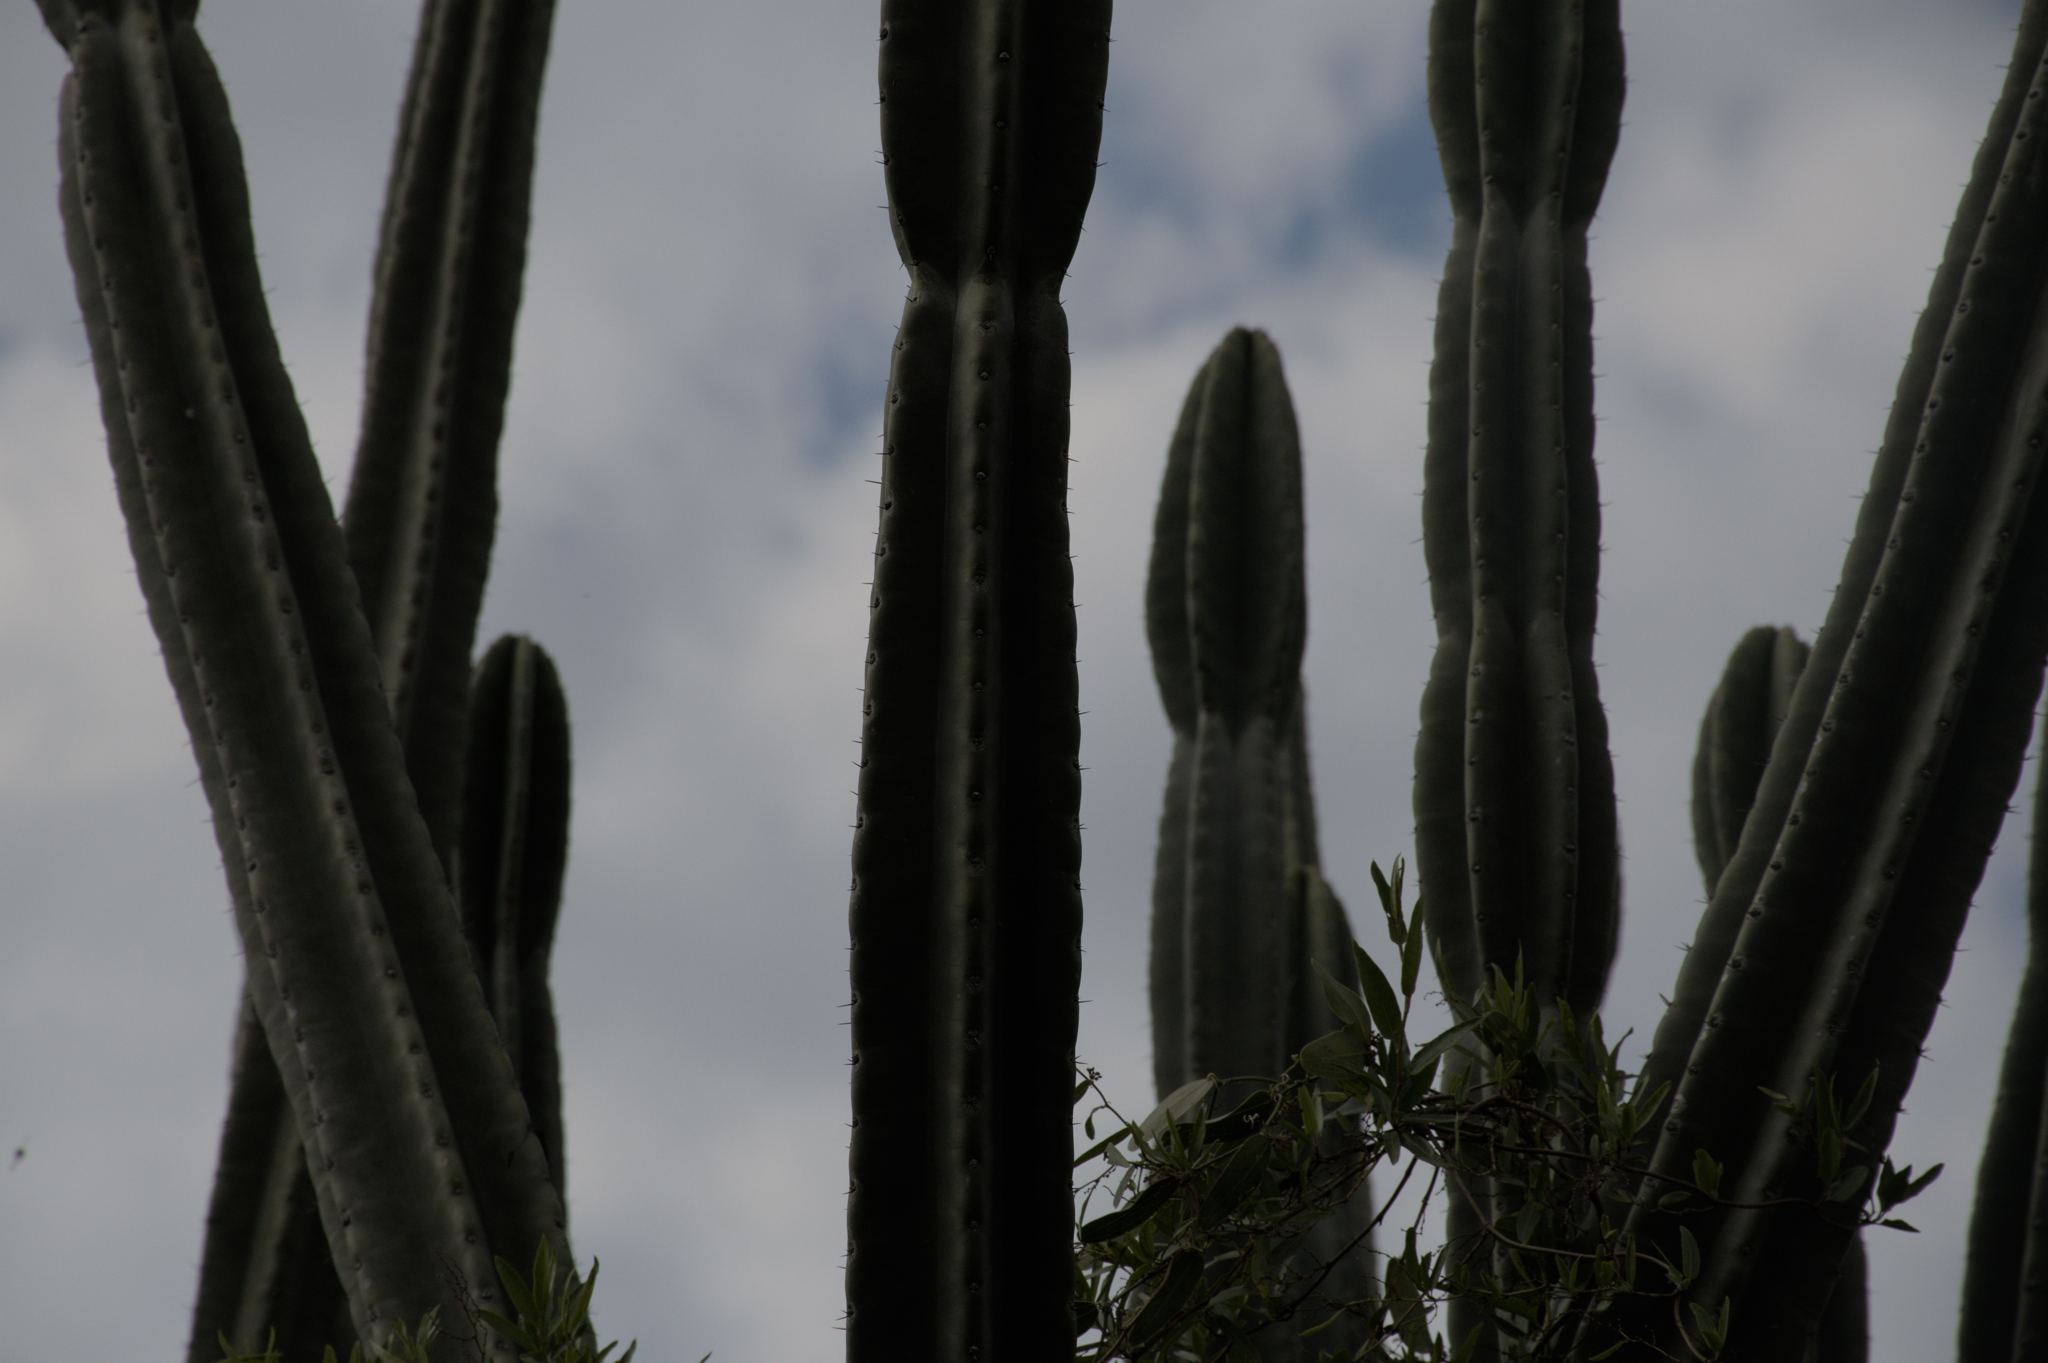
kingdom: Plantae
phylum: Tracheophyta
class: Magnoliopsida
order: Caryophyllales
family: Cactaceae
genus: Cereus
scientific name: Cereus stenogonus
